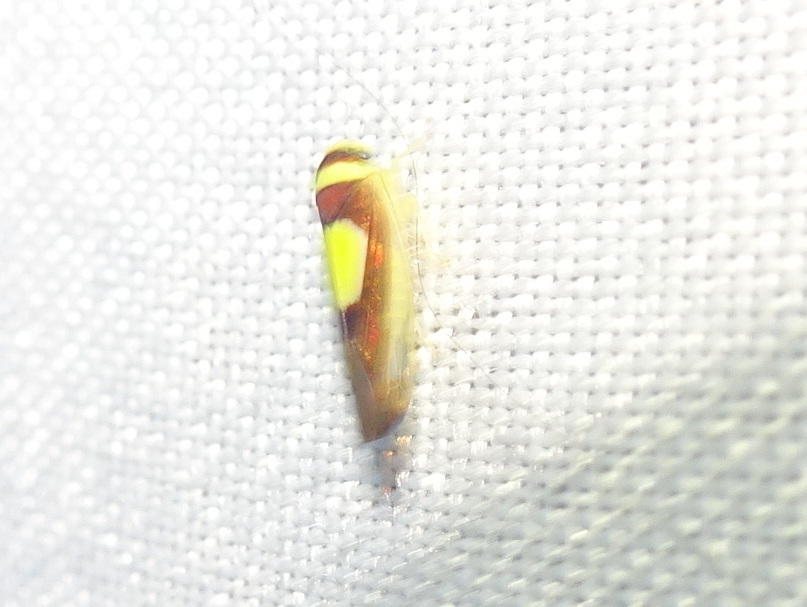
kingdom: Animalia
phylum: Arthropoda
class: Insecta
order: Hemiptera
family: Cicadellidae
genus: Colladonus
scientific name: Colladonus clitellarius
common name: The saddleback leafhopper
